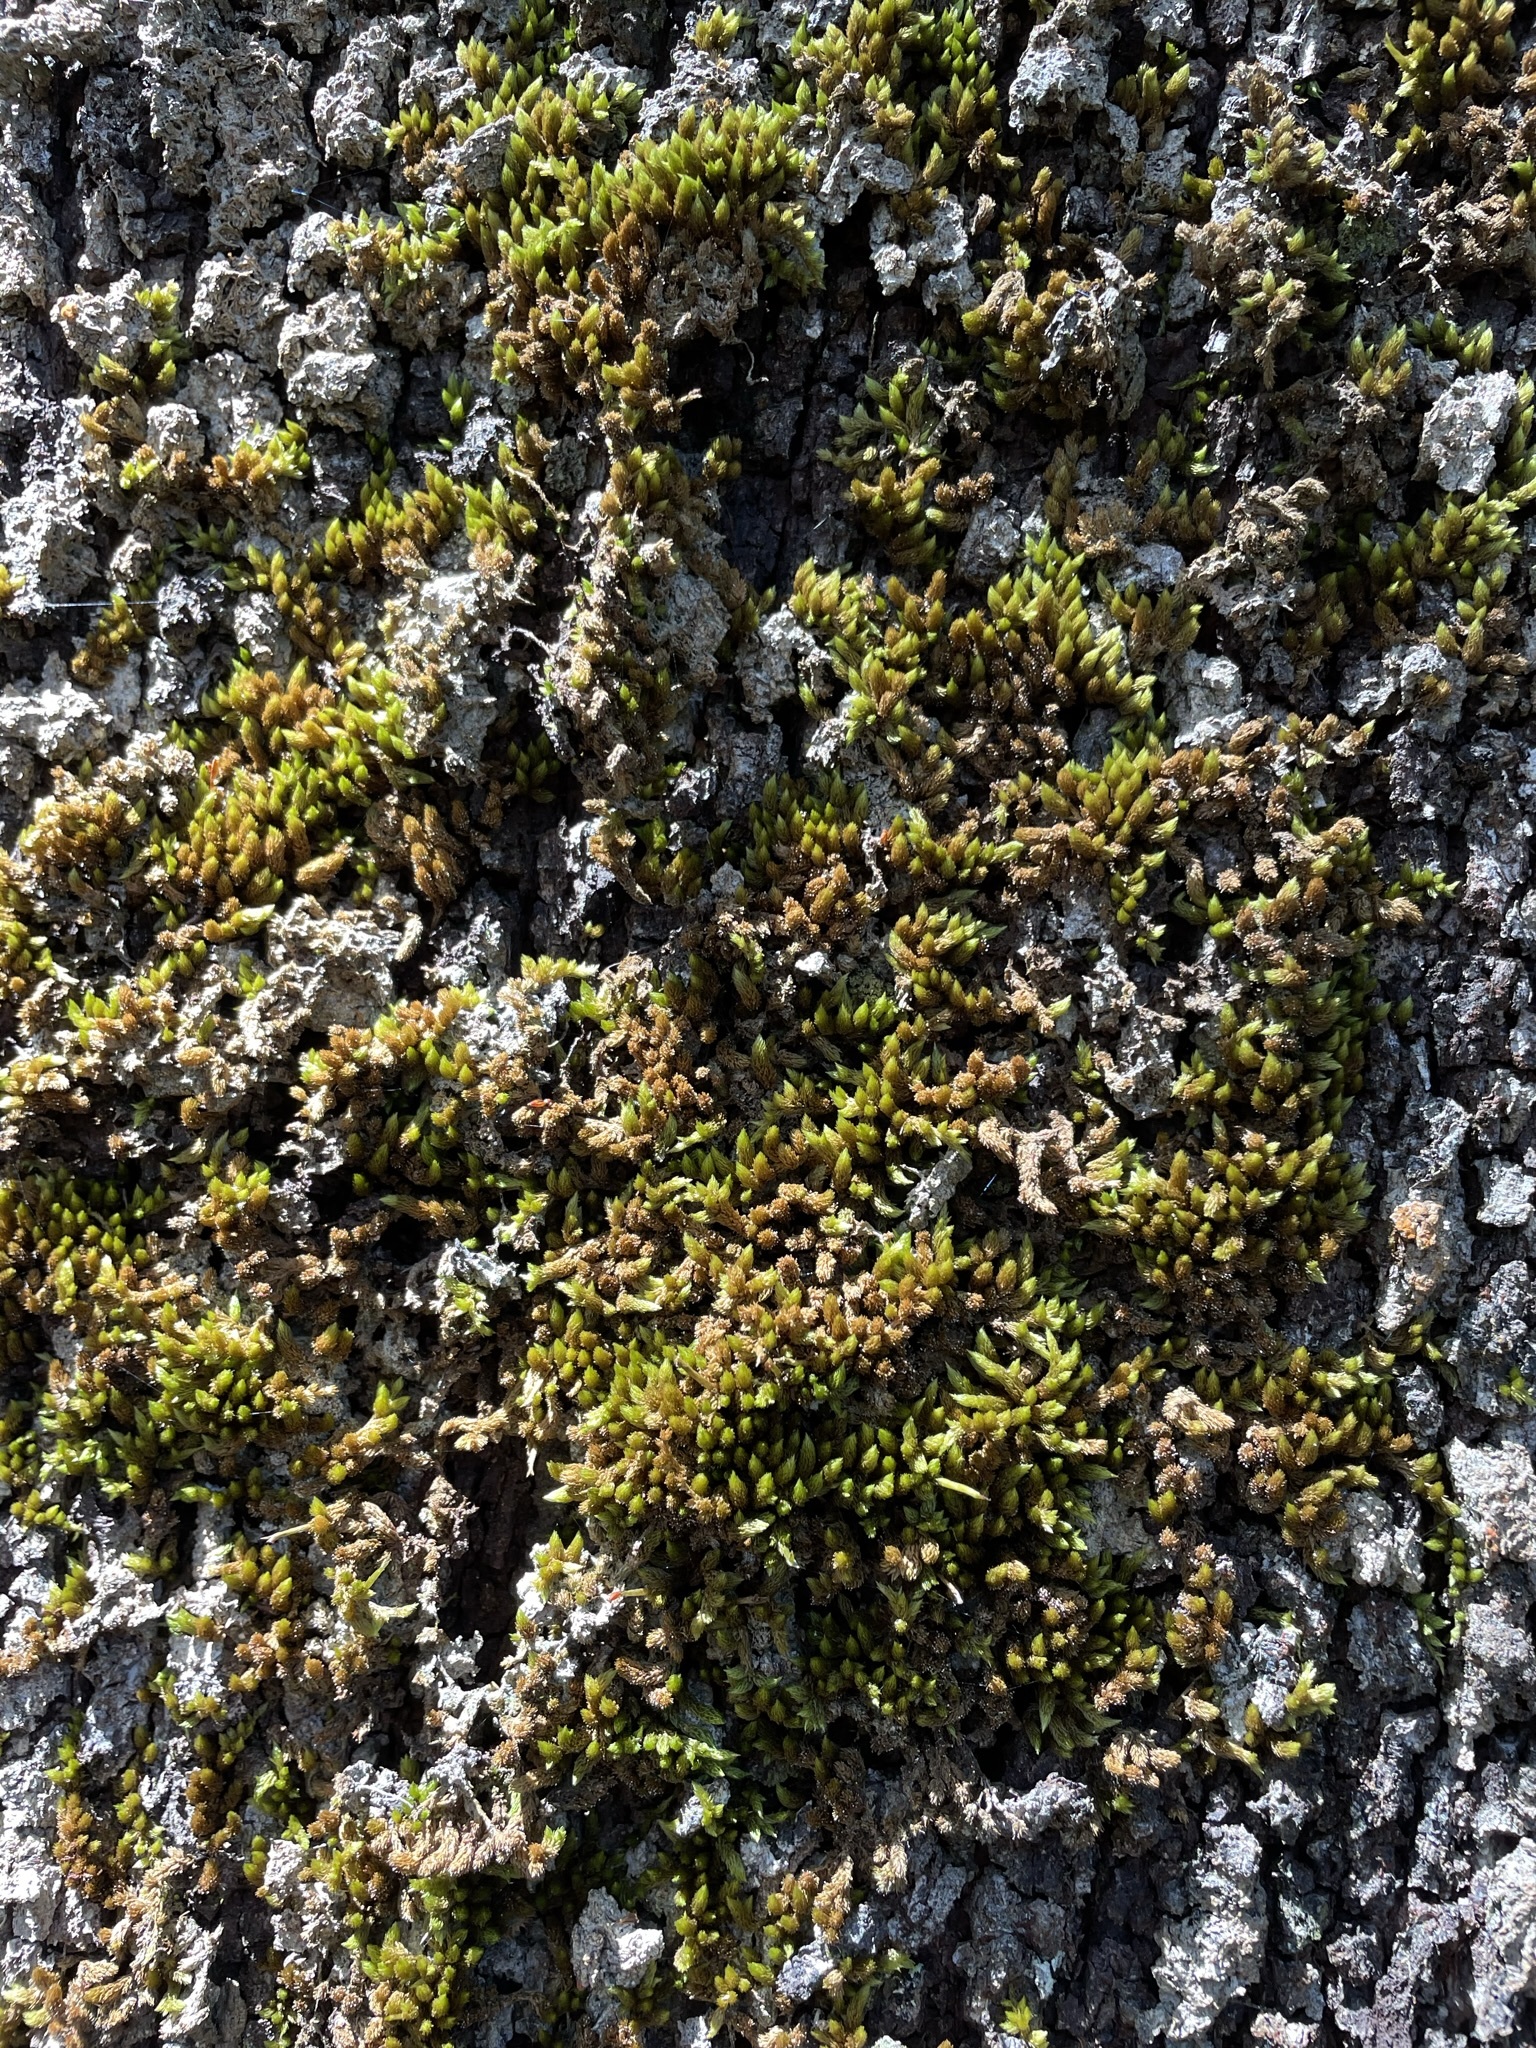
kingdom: Plantae
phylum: Bryophyta
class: Bryopsida
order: Dicranales
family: Dicranaceae
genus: Dicnemon
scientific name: Dicnemon calycinum
